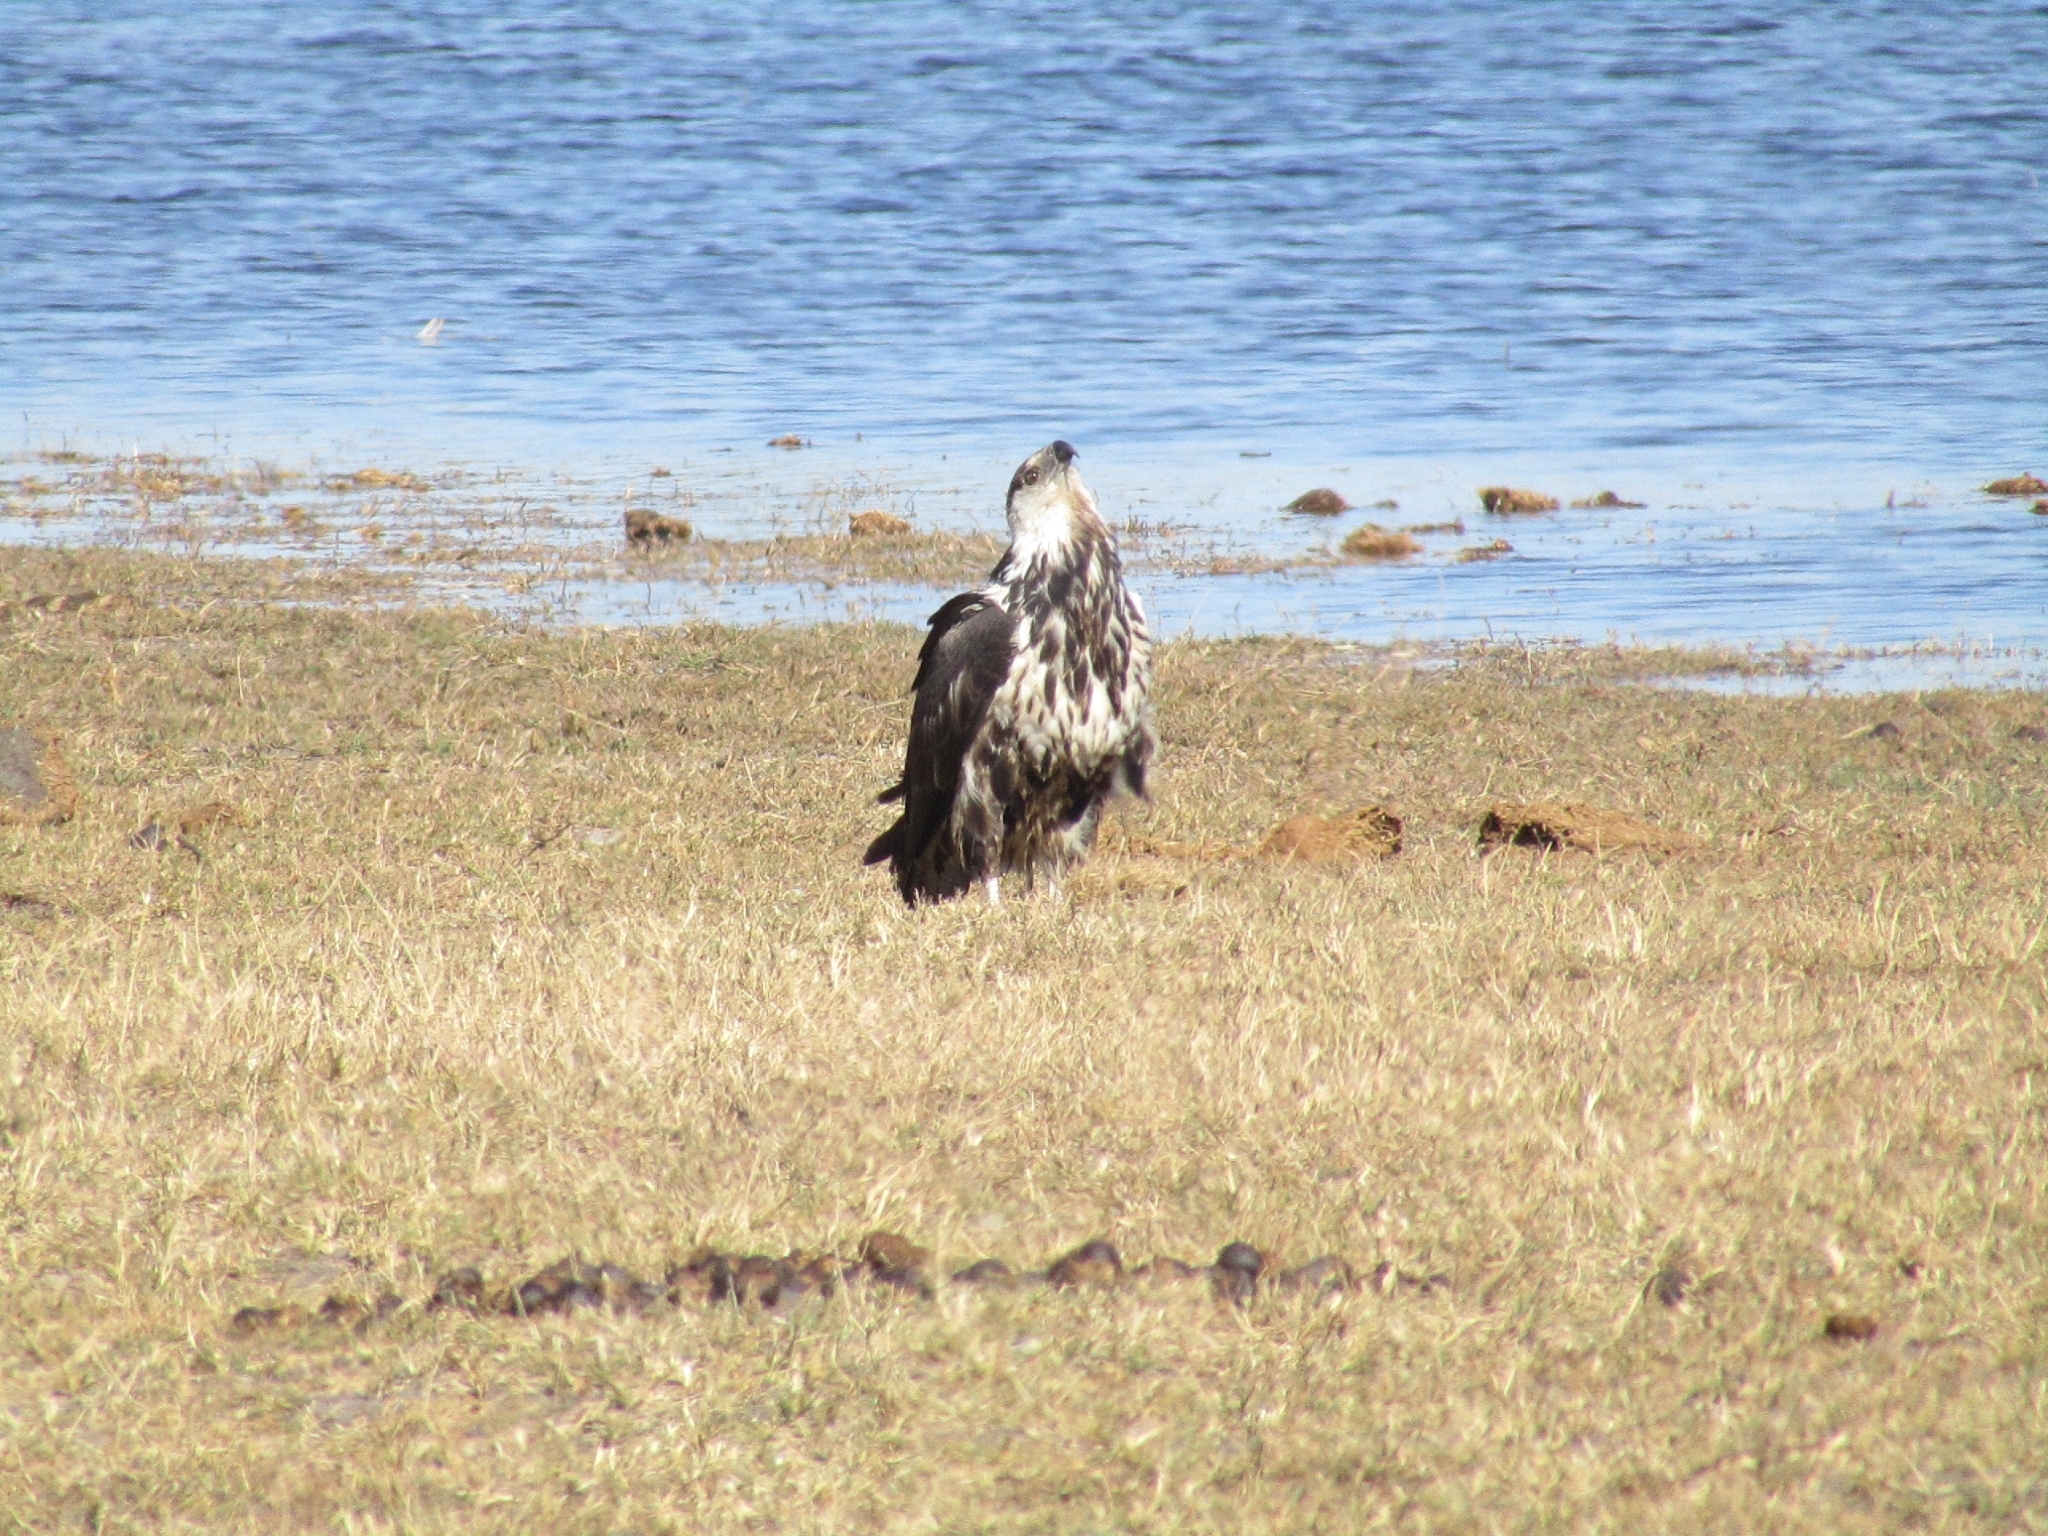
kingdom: Animalia
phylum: Chordata
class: Aves
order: Accipitriformes
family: Accipitridae
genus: Haliaeetus
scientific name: Haliaeetus vocifer
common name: African fish eagle
